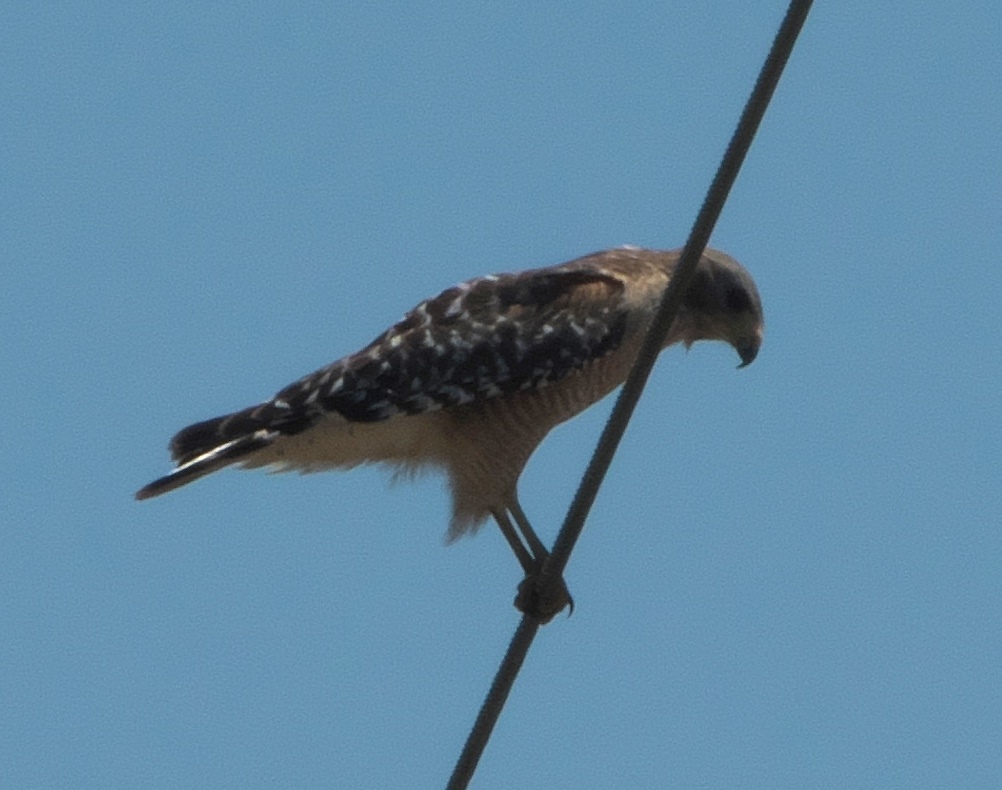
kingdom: Animalia
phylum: Chordata
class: Aves
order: Accipitriformes
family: Accipitridae
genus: Buteo
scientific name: Buteo lineatus
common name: Red-shouldered hawk
